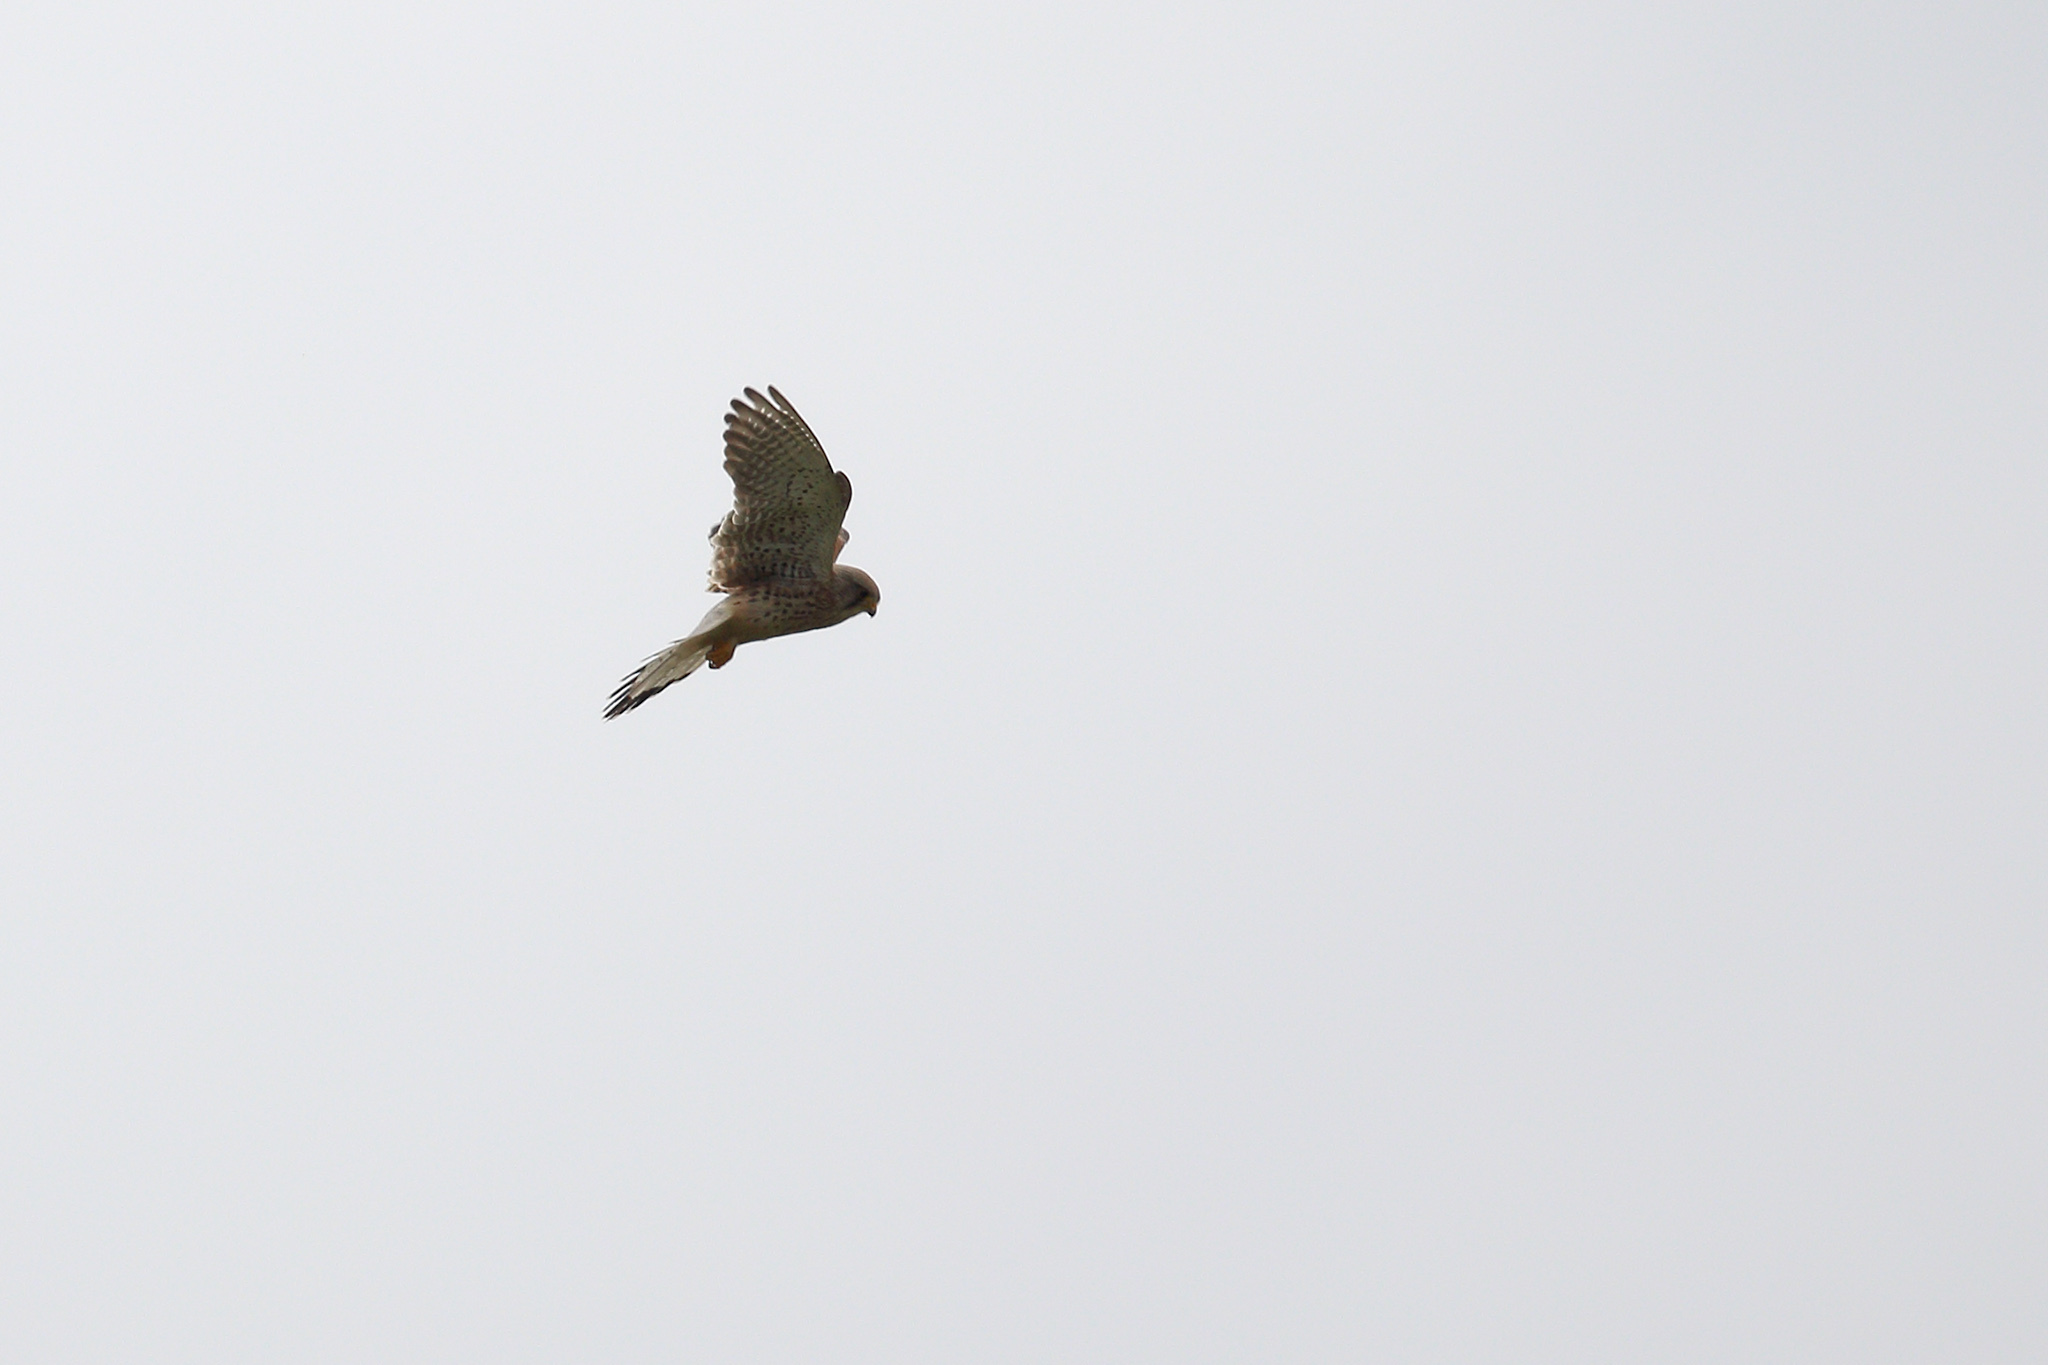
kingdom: Animalia
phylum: Chordata
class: Aves
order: Falconiformes
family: Falconidae
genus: Falco
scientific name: Falco tinnunculus
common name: Common kestrel
